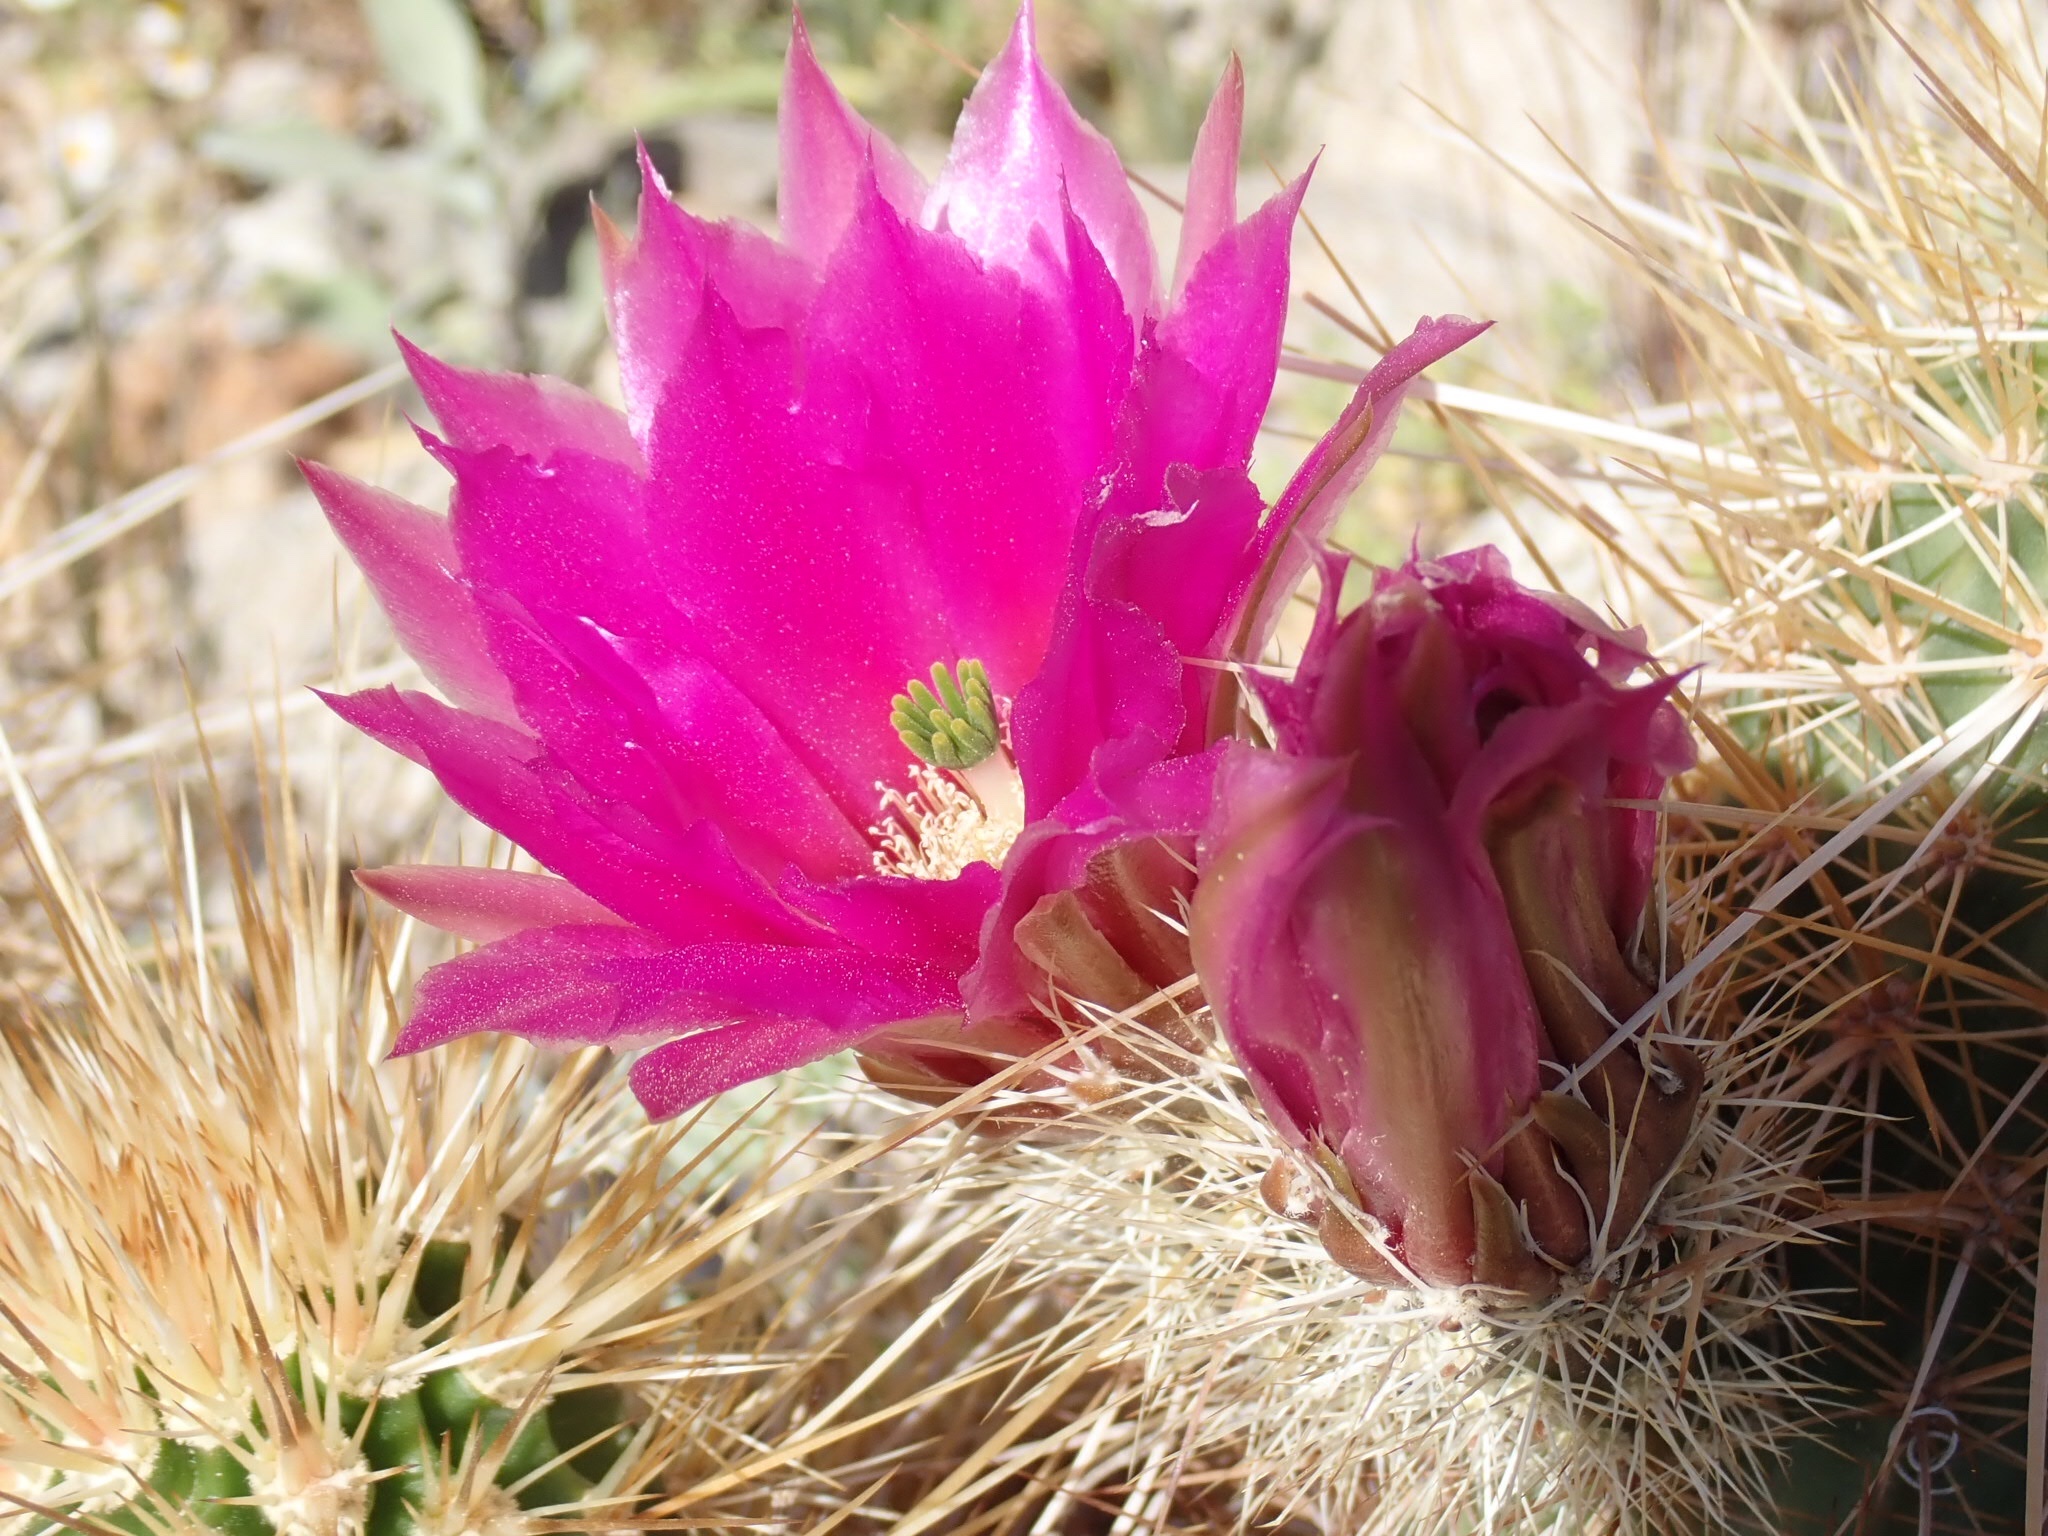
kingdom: Plantae
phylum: Tracheophyta
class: Magnoliopsida
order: Caryophyllales
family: Cactaceae
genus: Echinocereus
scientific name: Echinocereus engelmannii
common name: Engelmann's hedgehog cactus
